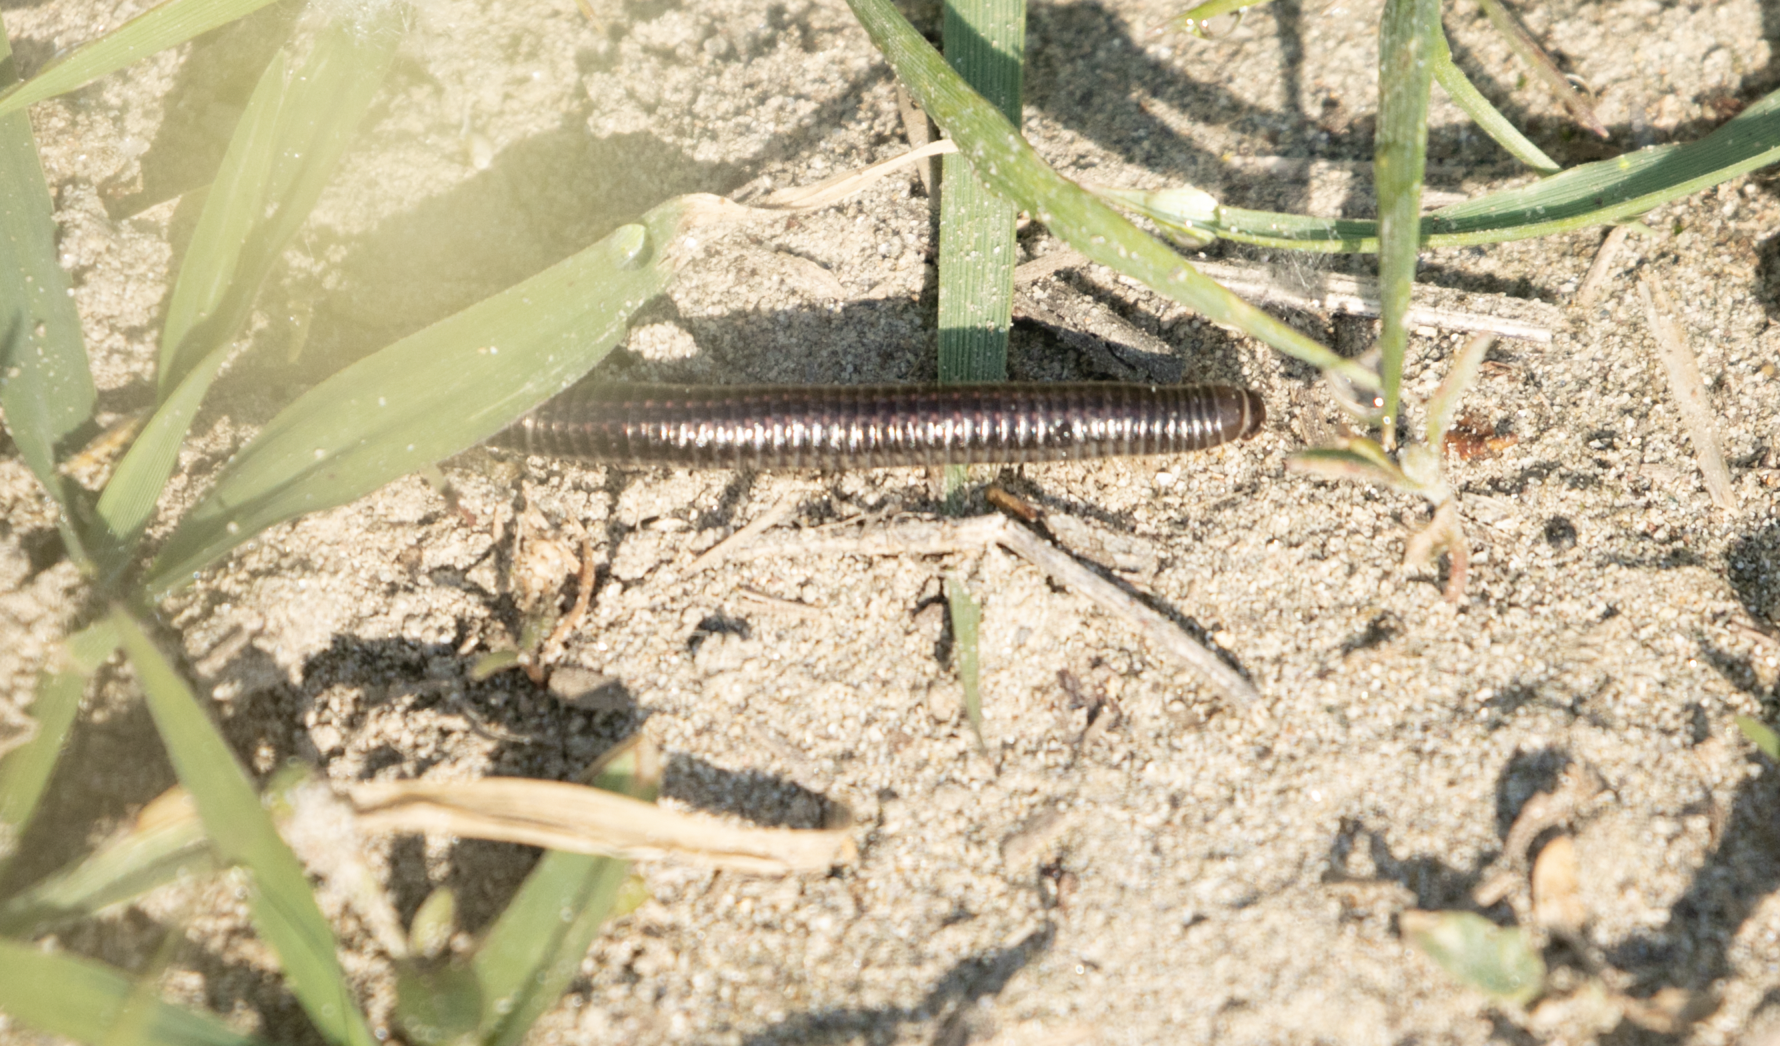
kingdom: Animalia
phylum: Arthropoda
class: Diplopoda
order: Julida
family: Julidae
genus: Ommatoiulus
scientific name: Ommatoiulus sabulosus
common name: Striped millipede
